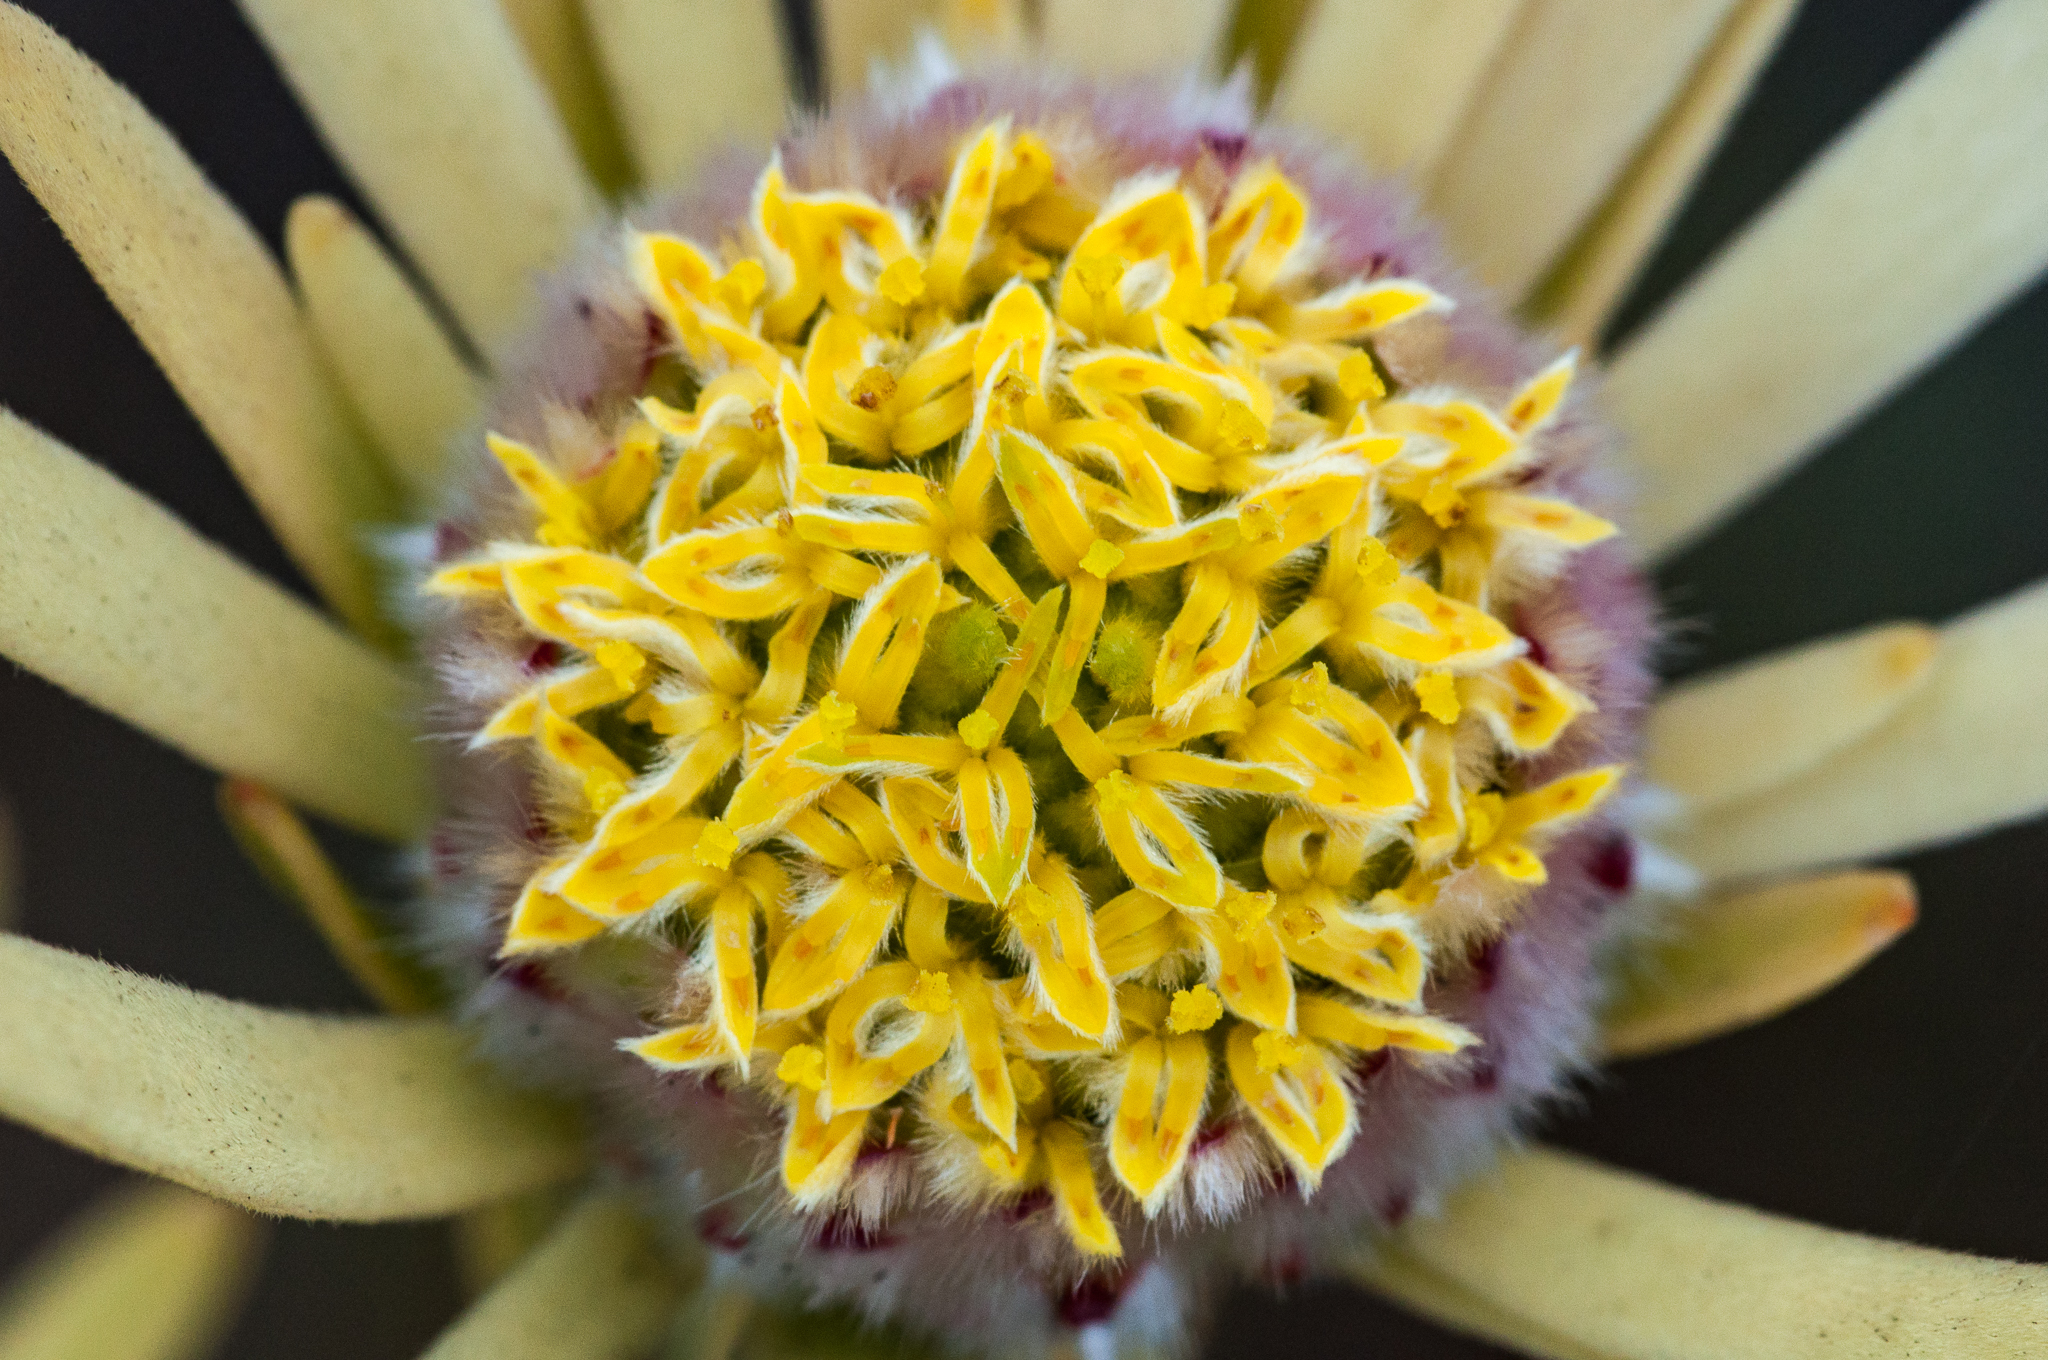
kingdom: Plantae
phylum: Tracheophyta
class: Magnoliopsida
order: Proteales
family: Proteaceae
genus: Leucadendron
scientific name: Leucadendron nitidum
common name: Bokkeveld conebush
